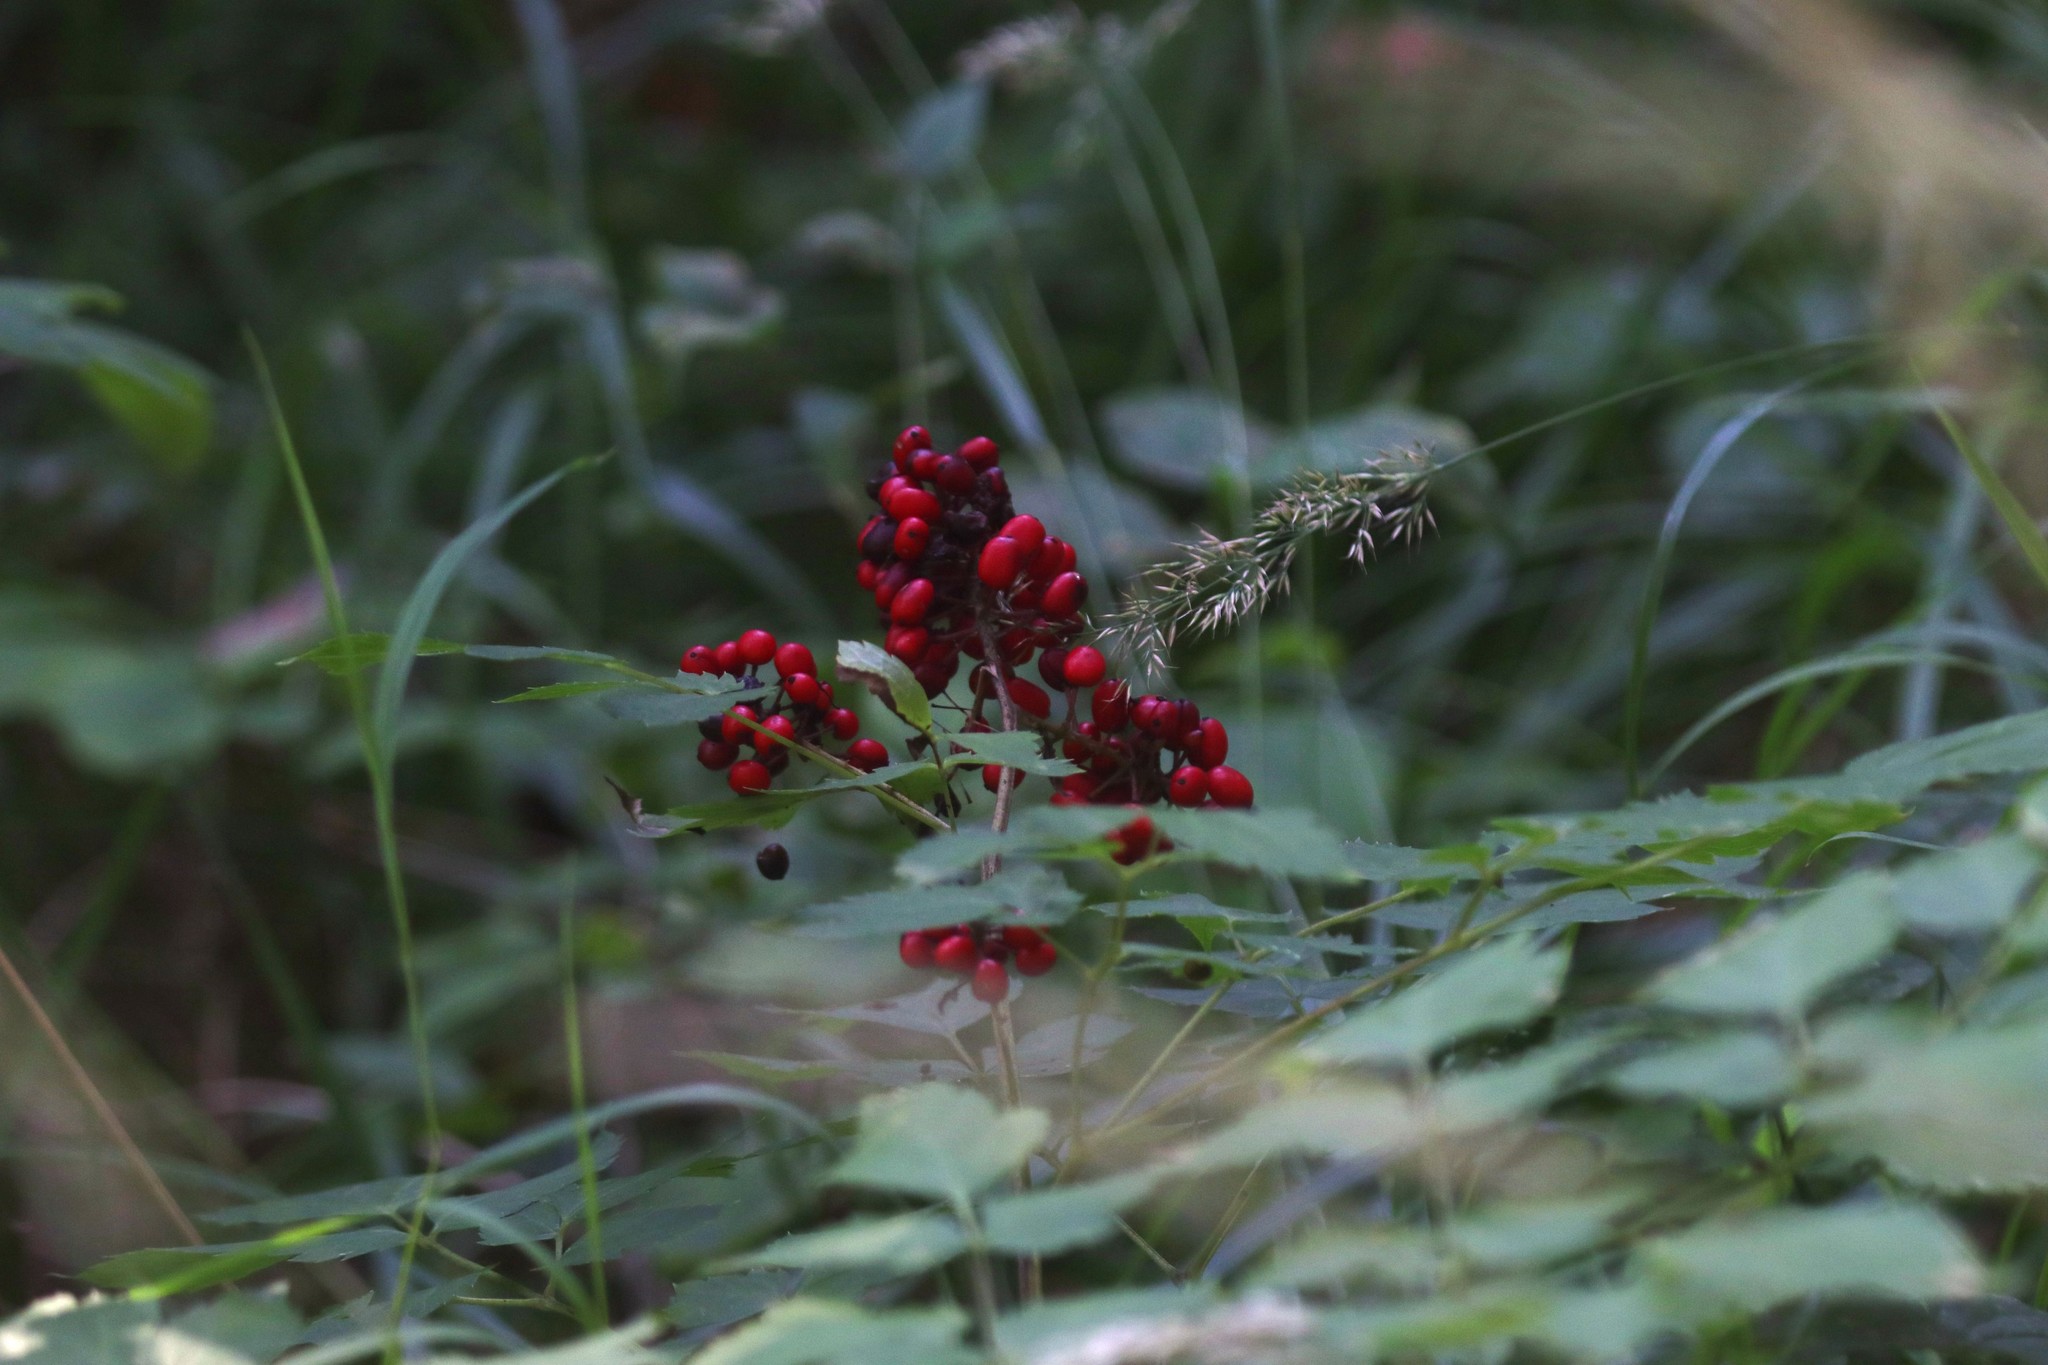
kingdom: Plantae
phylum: Tracheophyta
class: Magnoliopsida
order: Ranunculales
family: Ranunculaceae
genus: Actaea
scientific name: Actaea erythrocarpa
